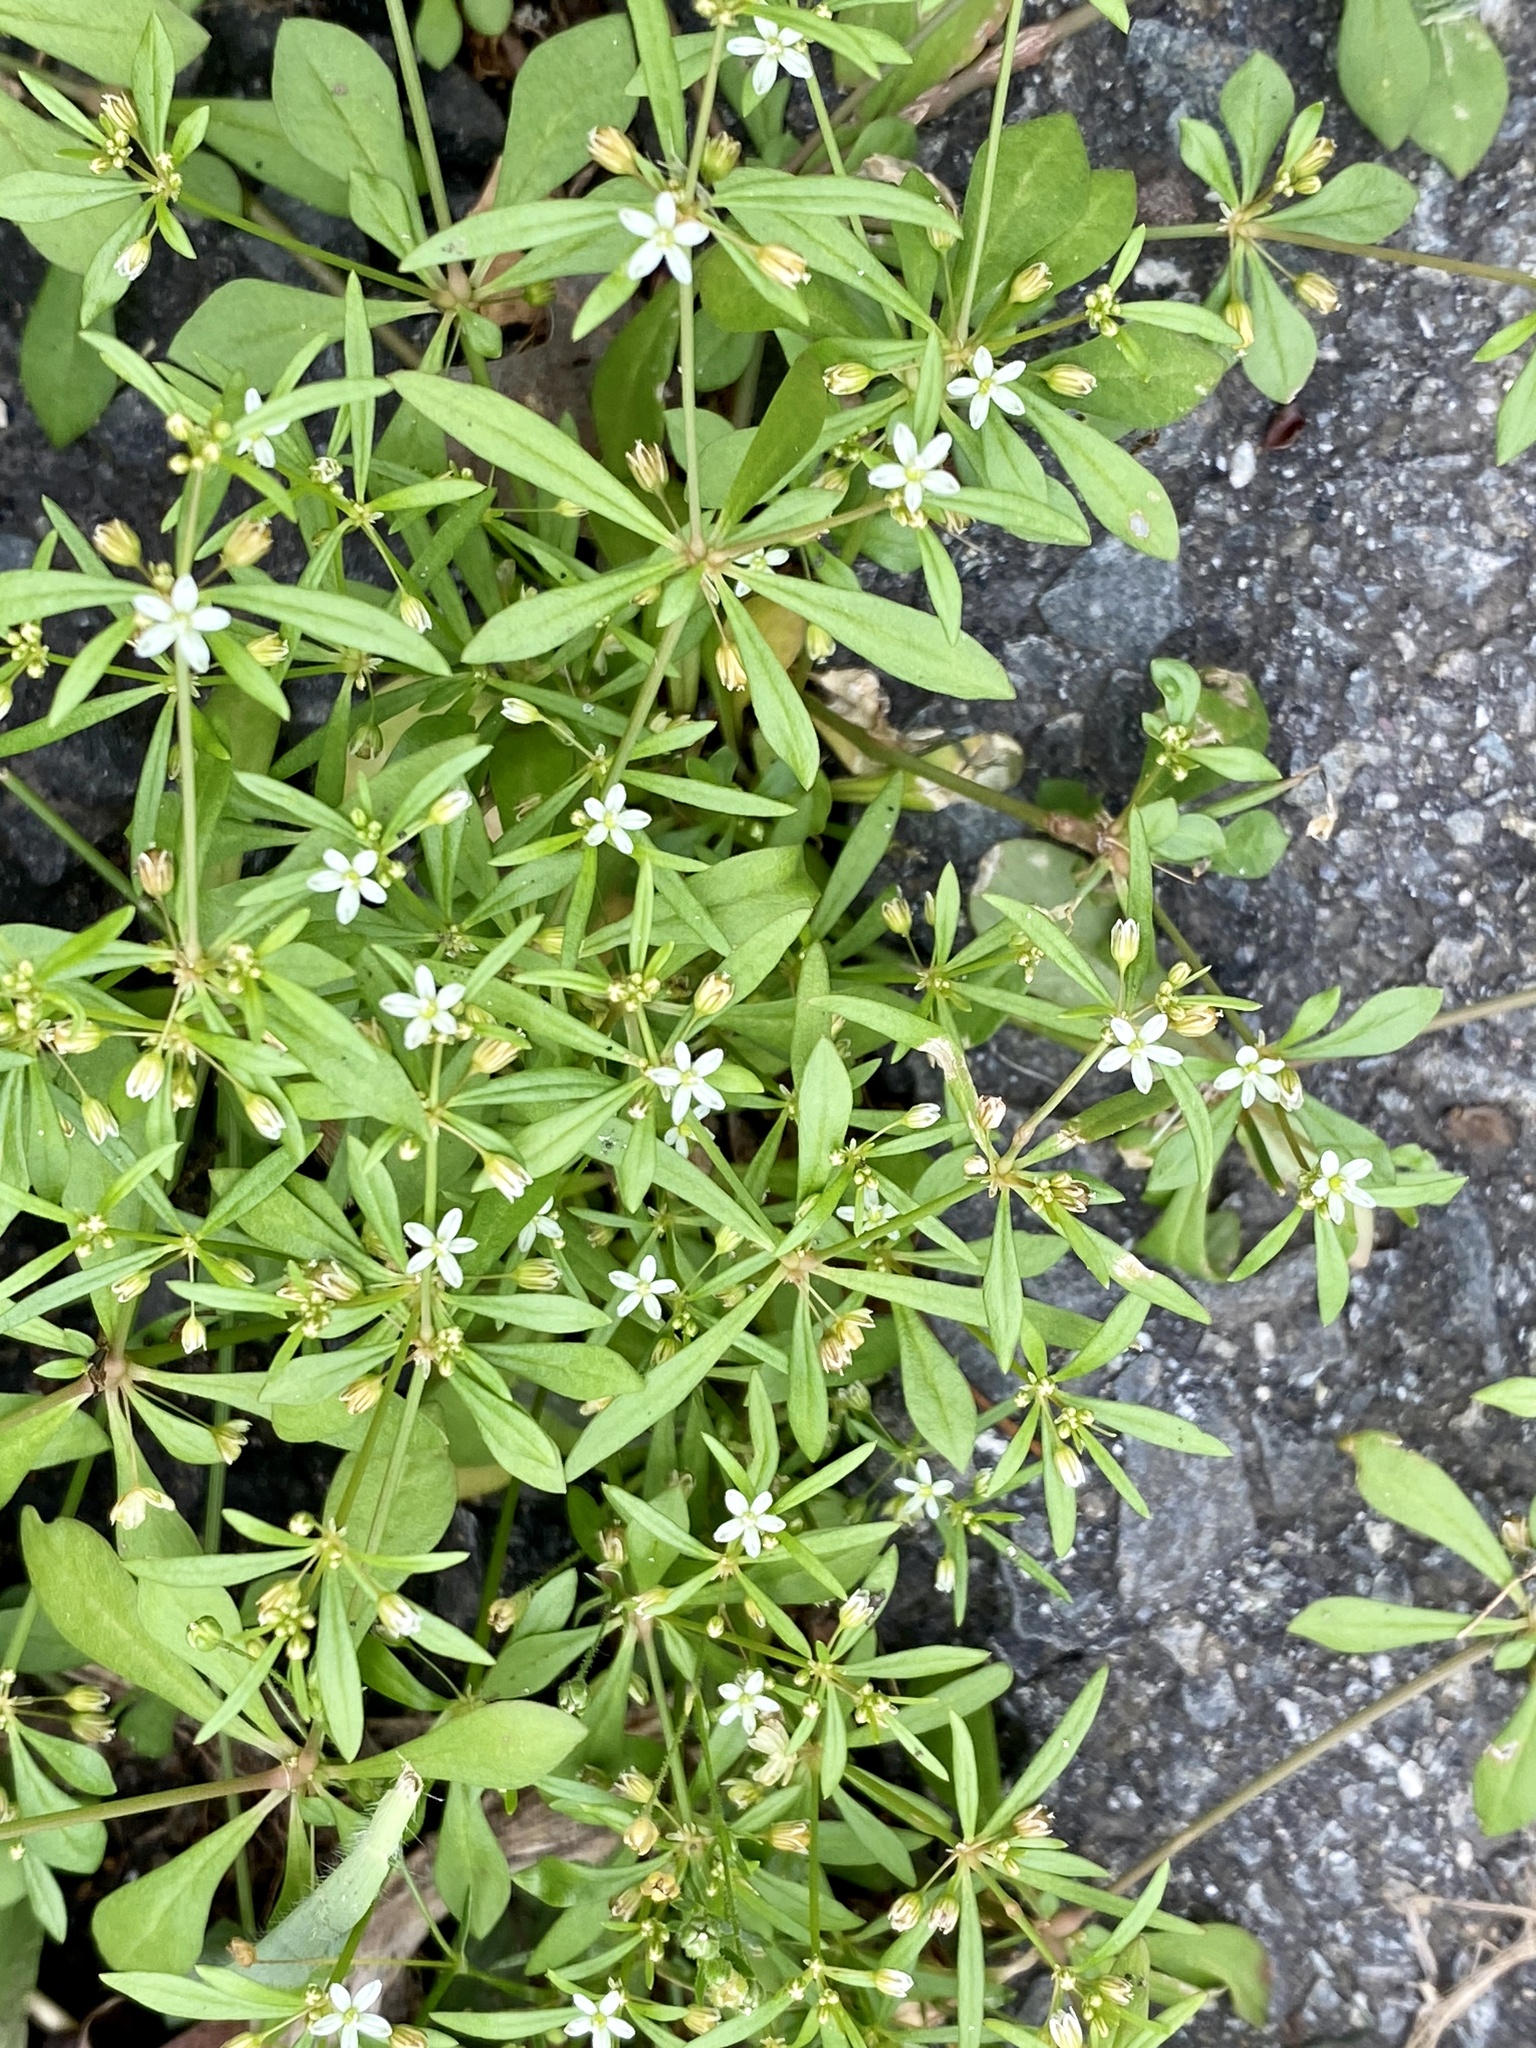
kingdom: Plantae
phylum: Tracheophyta
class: Magnoliopsida
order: Caryophyllales
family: Molluginaceae
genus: Mollugo
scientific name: Mollugo verticillata
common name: Green carpetweed
